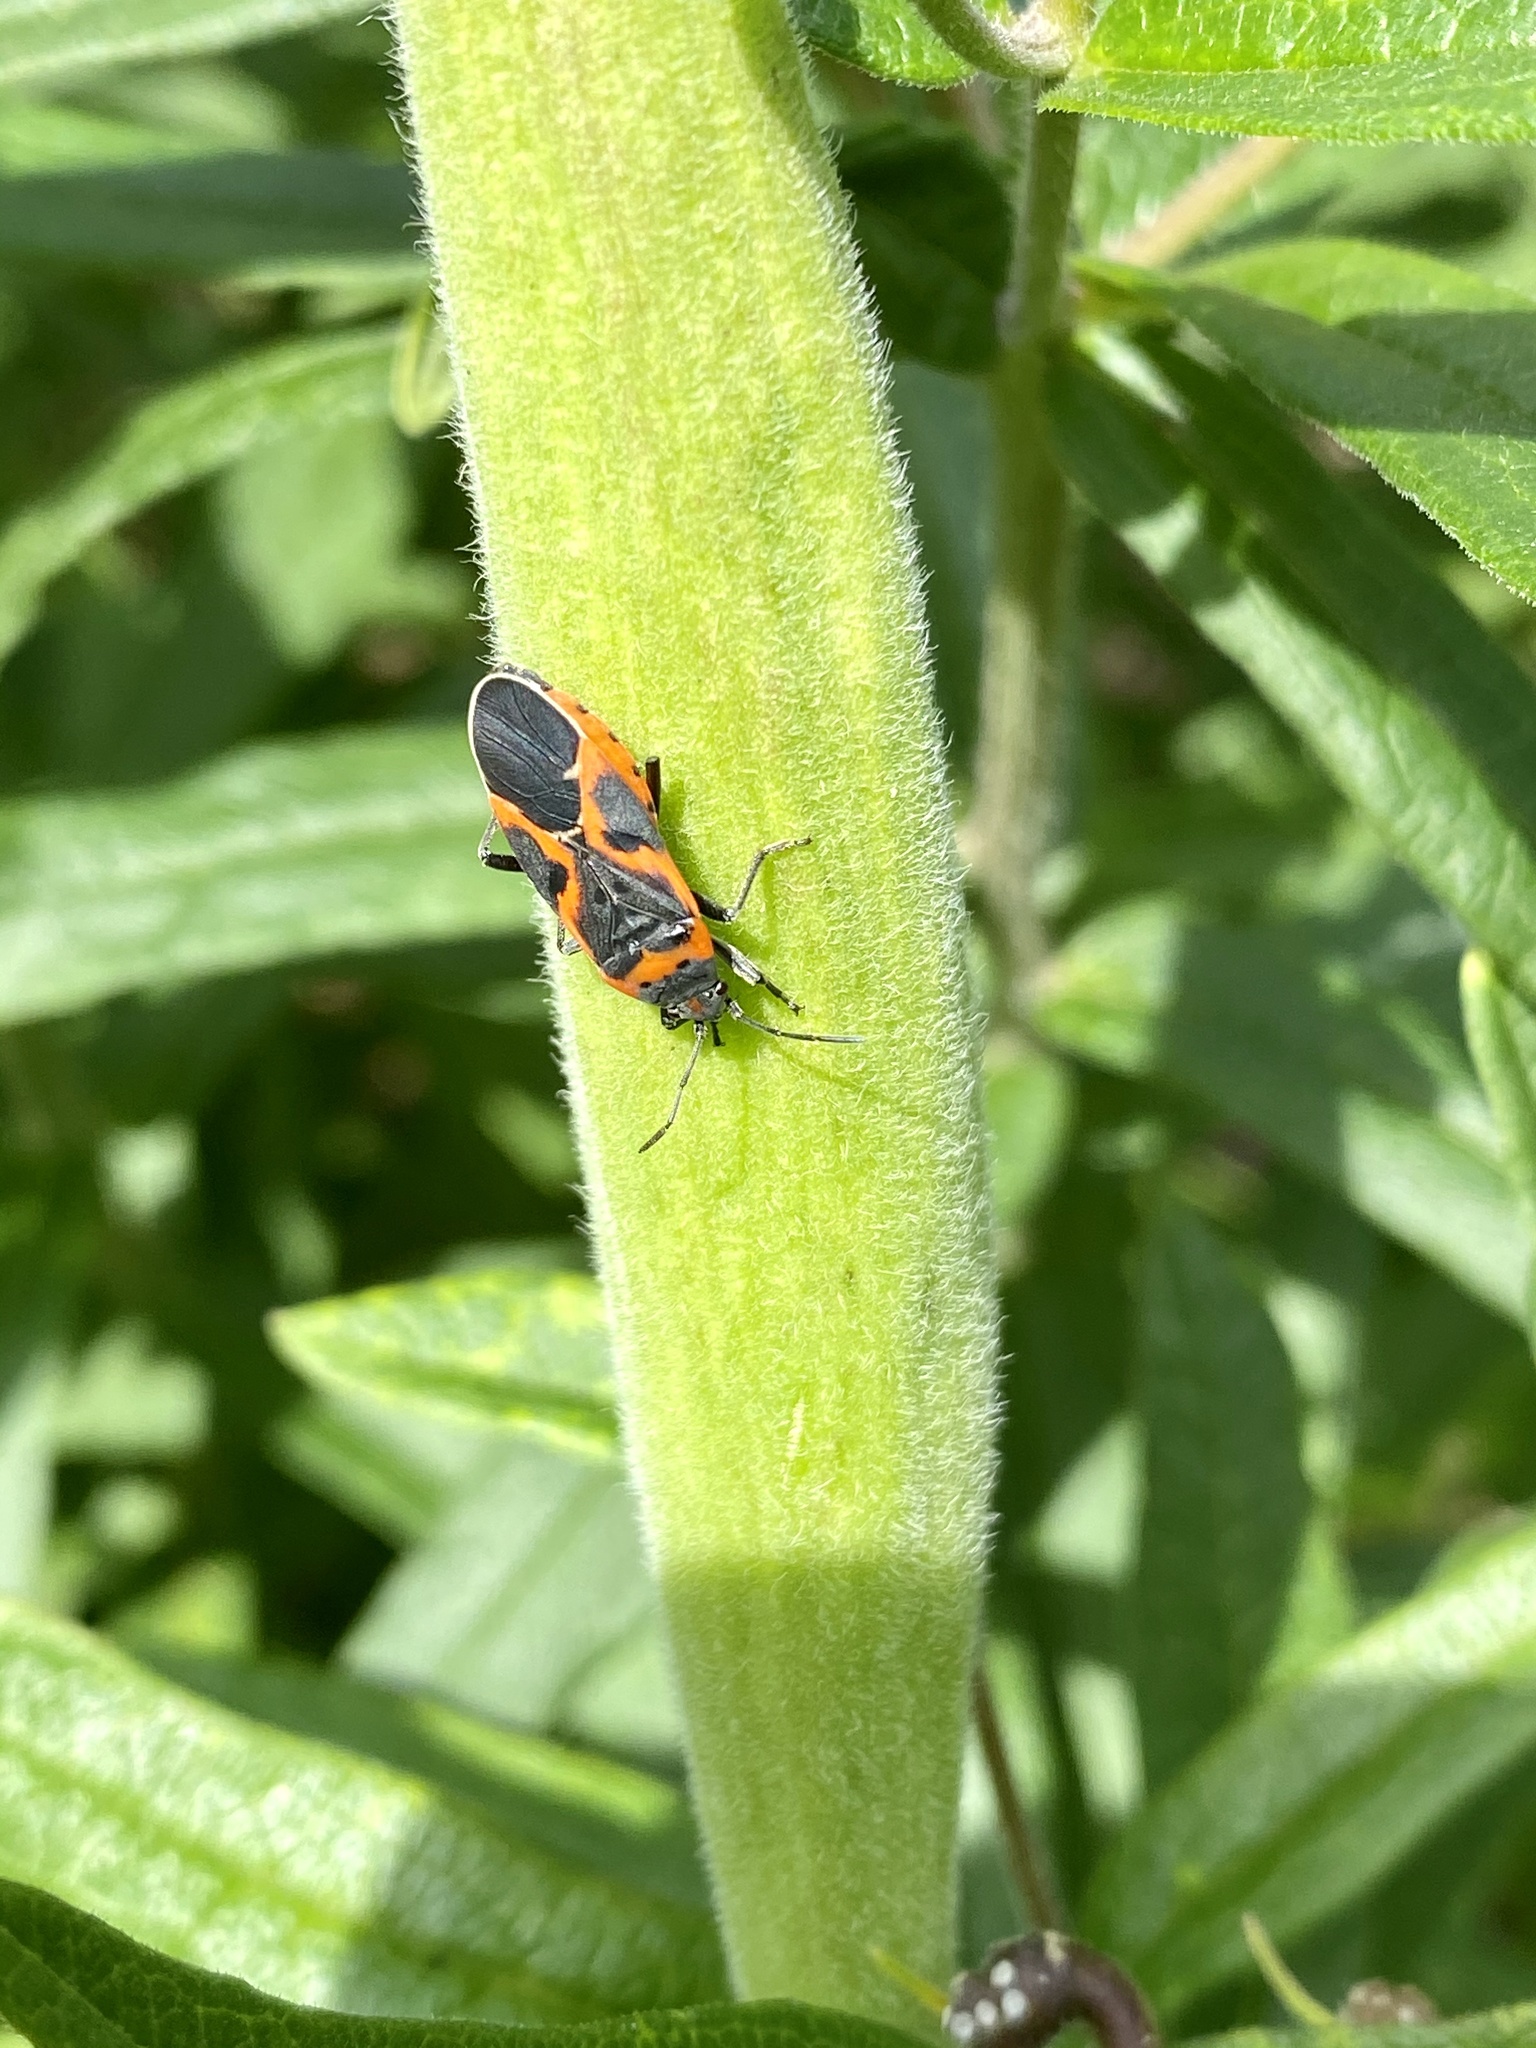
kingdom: Animalia
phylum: Arthropoda
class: Insecta
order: Hemiptera
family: Lygaeidae
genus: Lygaeus
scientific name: Lygaeus kalmii
